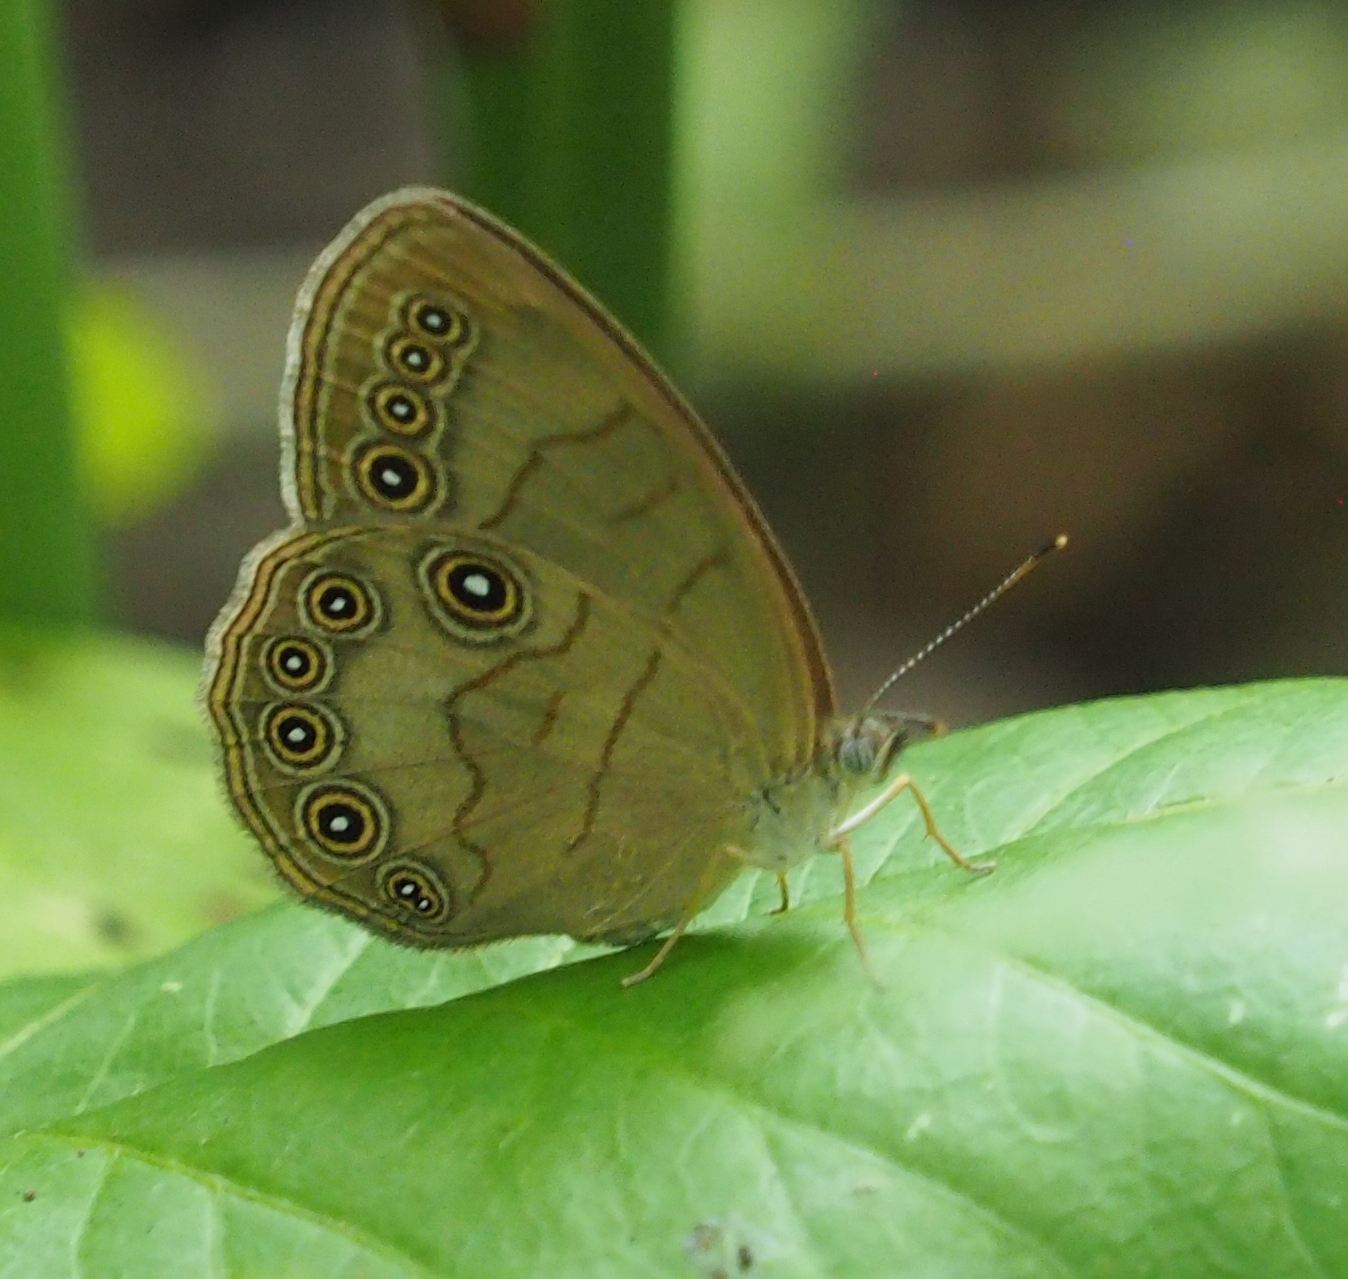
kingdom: Animalia
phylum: Arthropoda
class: Insecta
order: Lepidoptera
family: Nymphalidae
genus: Lethe
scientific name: Lethe eurydice
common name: Eyed brown
